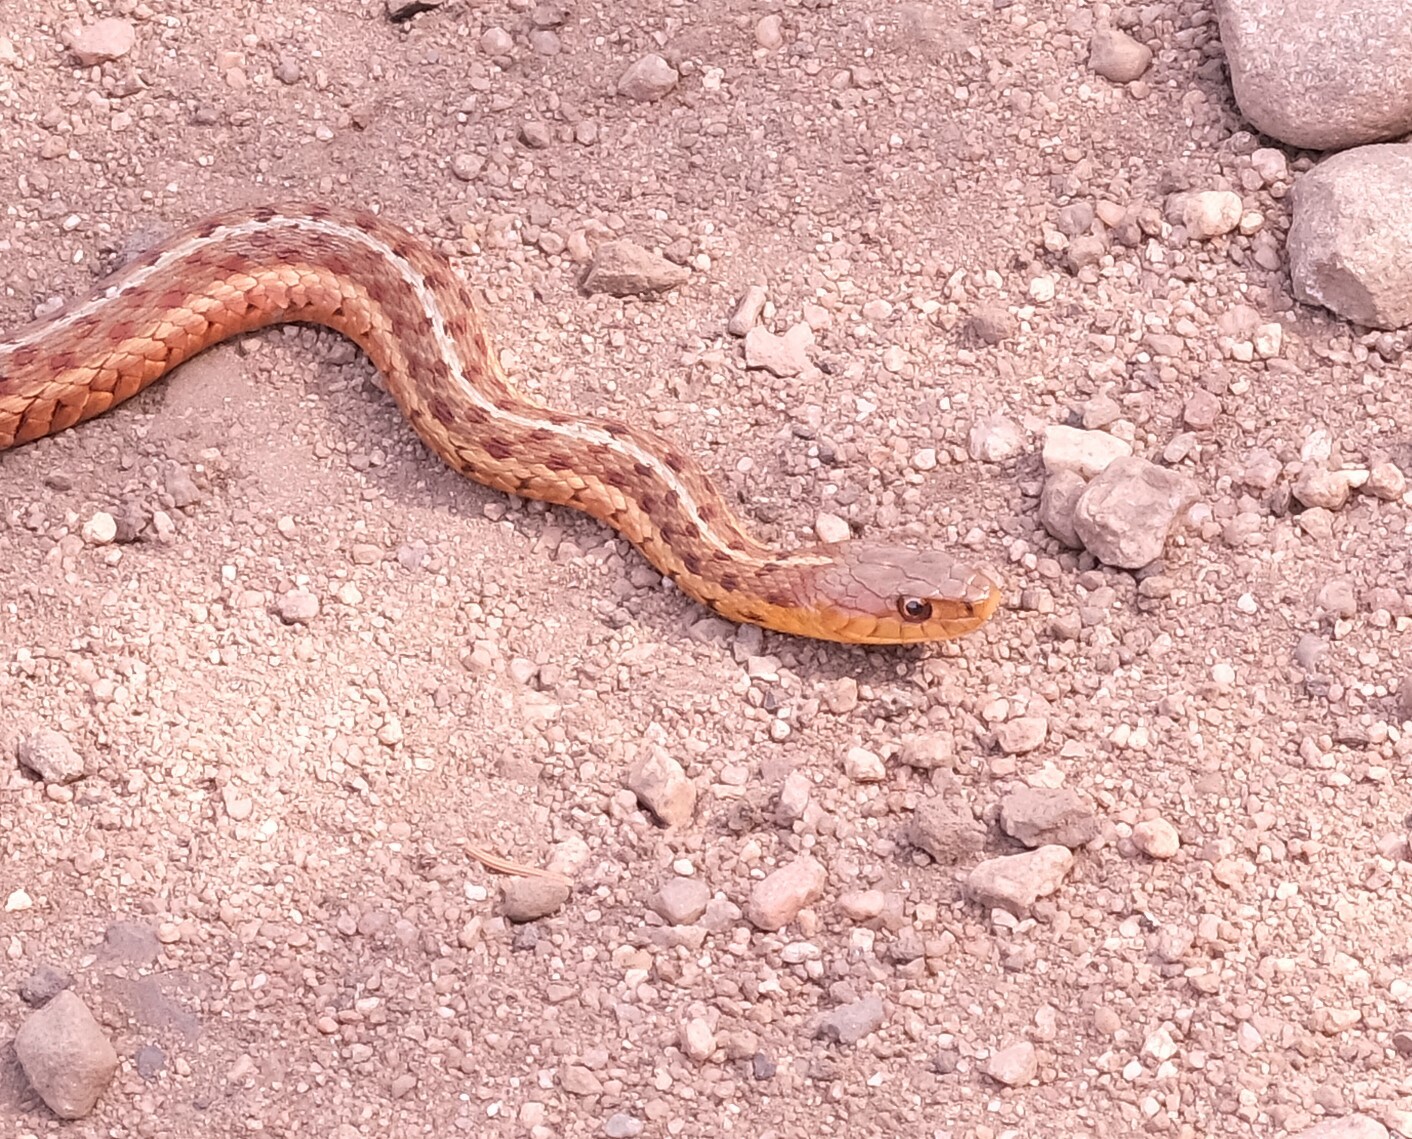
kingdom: Animalia
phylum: Chordata
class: Squamata
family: Colubridae
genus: Thamnophis
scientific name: Thamnophis sirtalis
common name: Common garter snake
